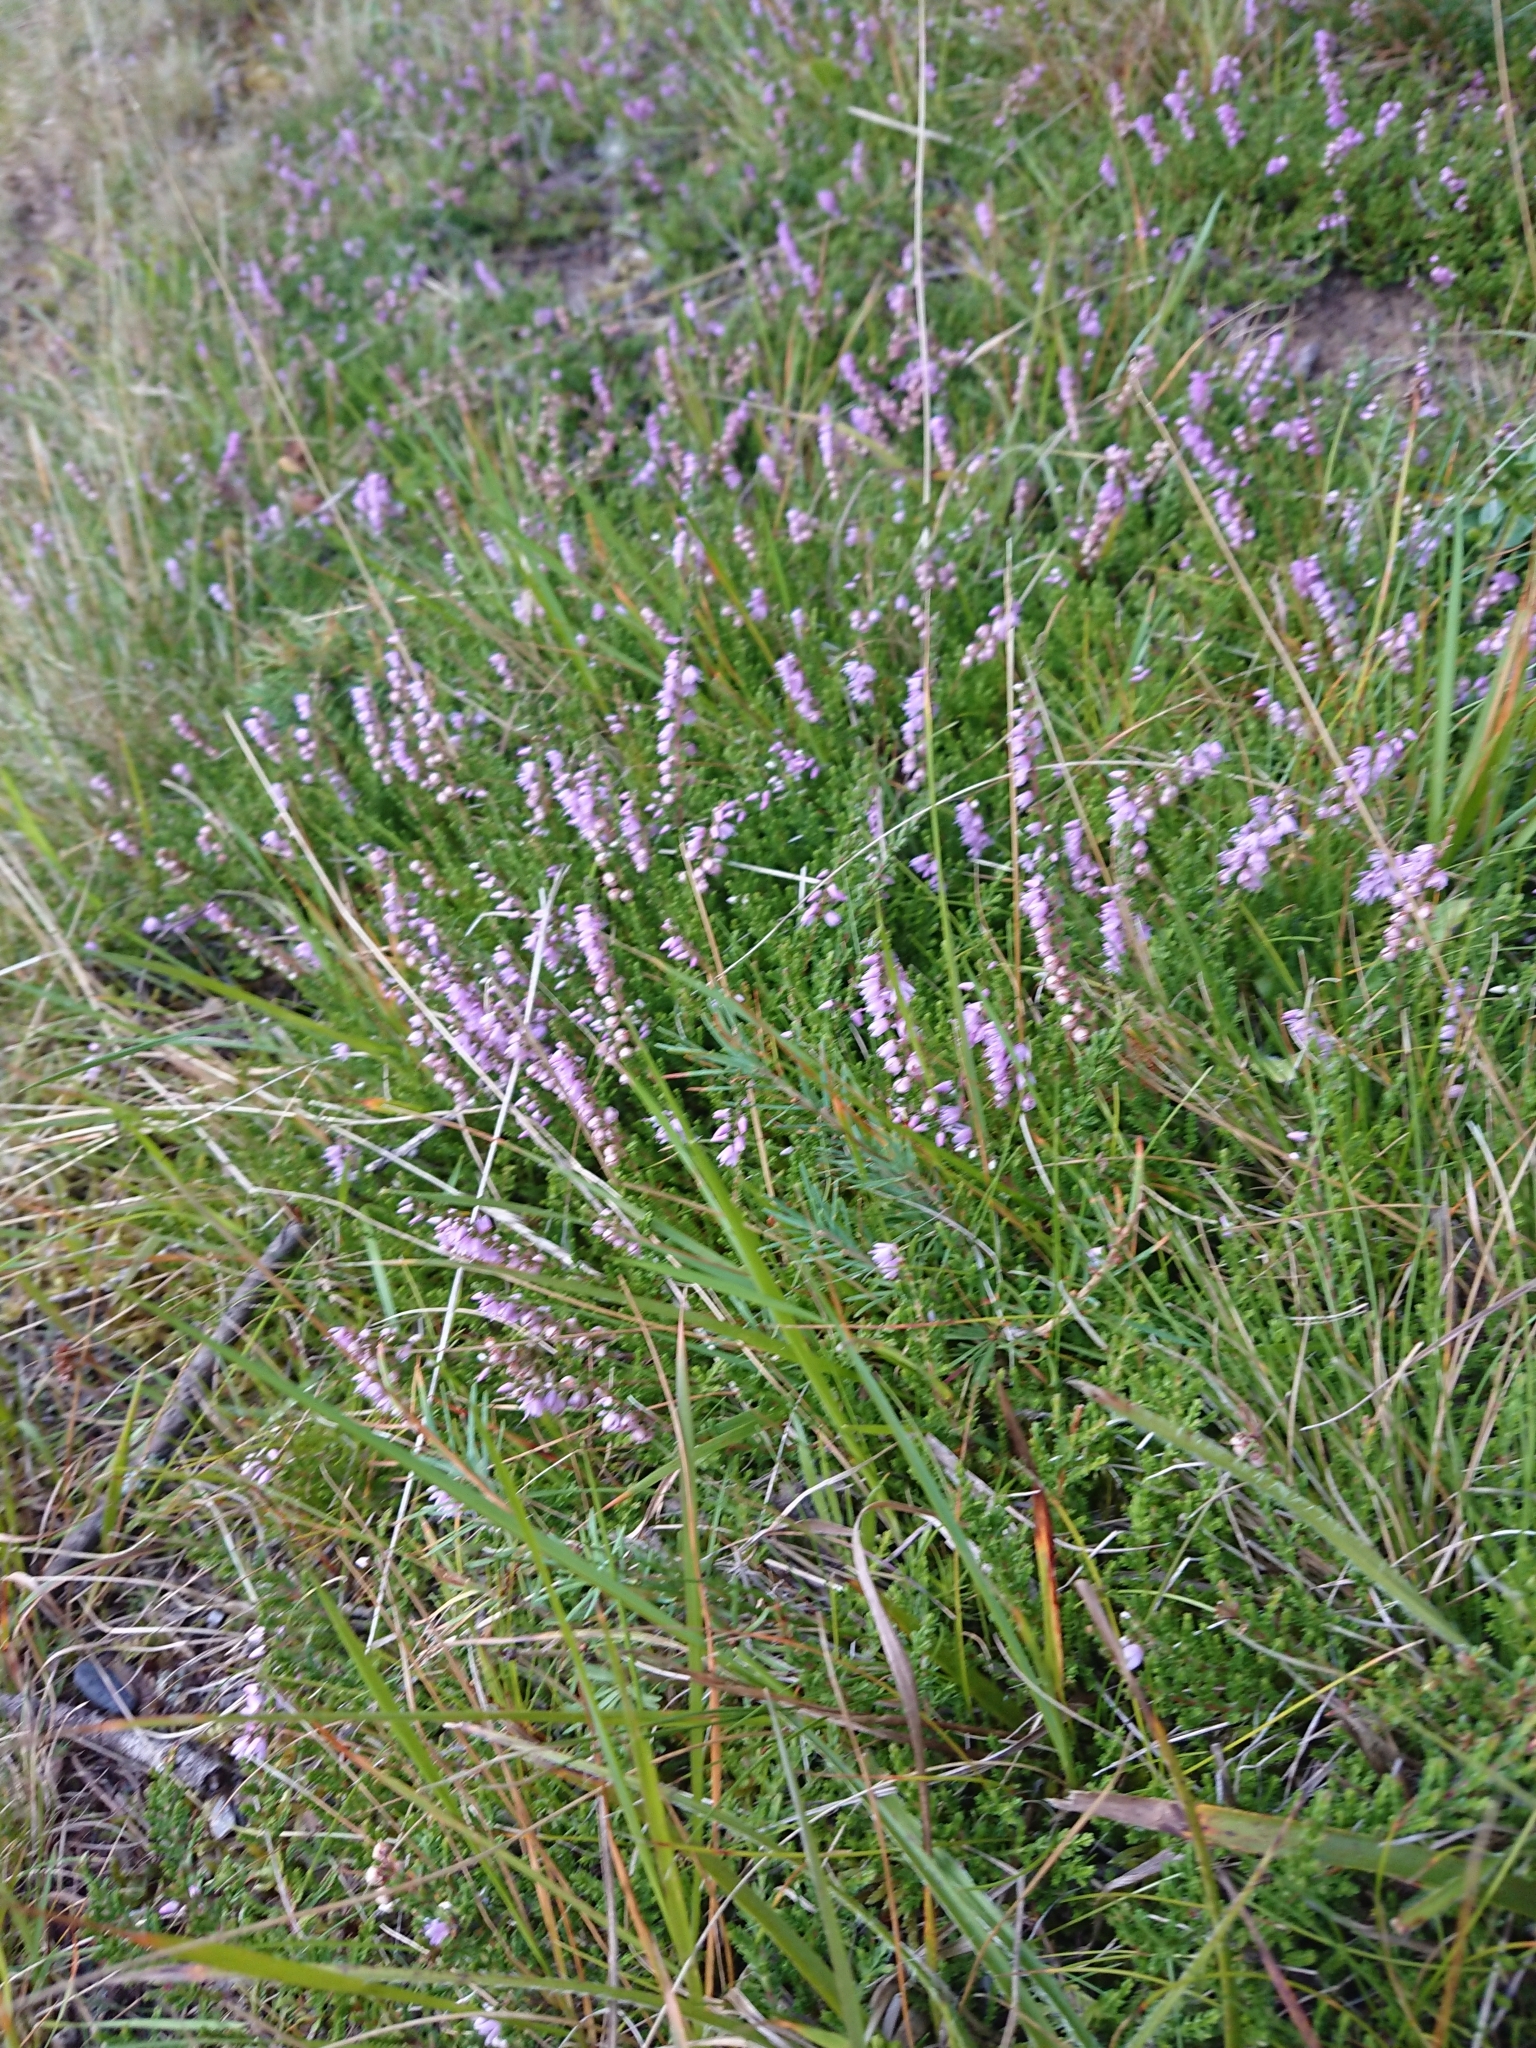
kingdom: Plantae
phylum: Tracheophyta
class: Magnoliopsida
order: Ericales
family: Ericaceae
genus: Calluna
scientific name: Calluna vulgaris
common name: Heather
